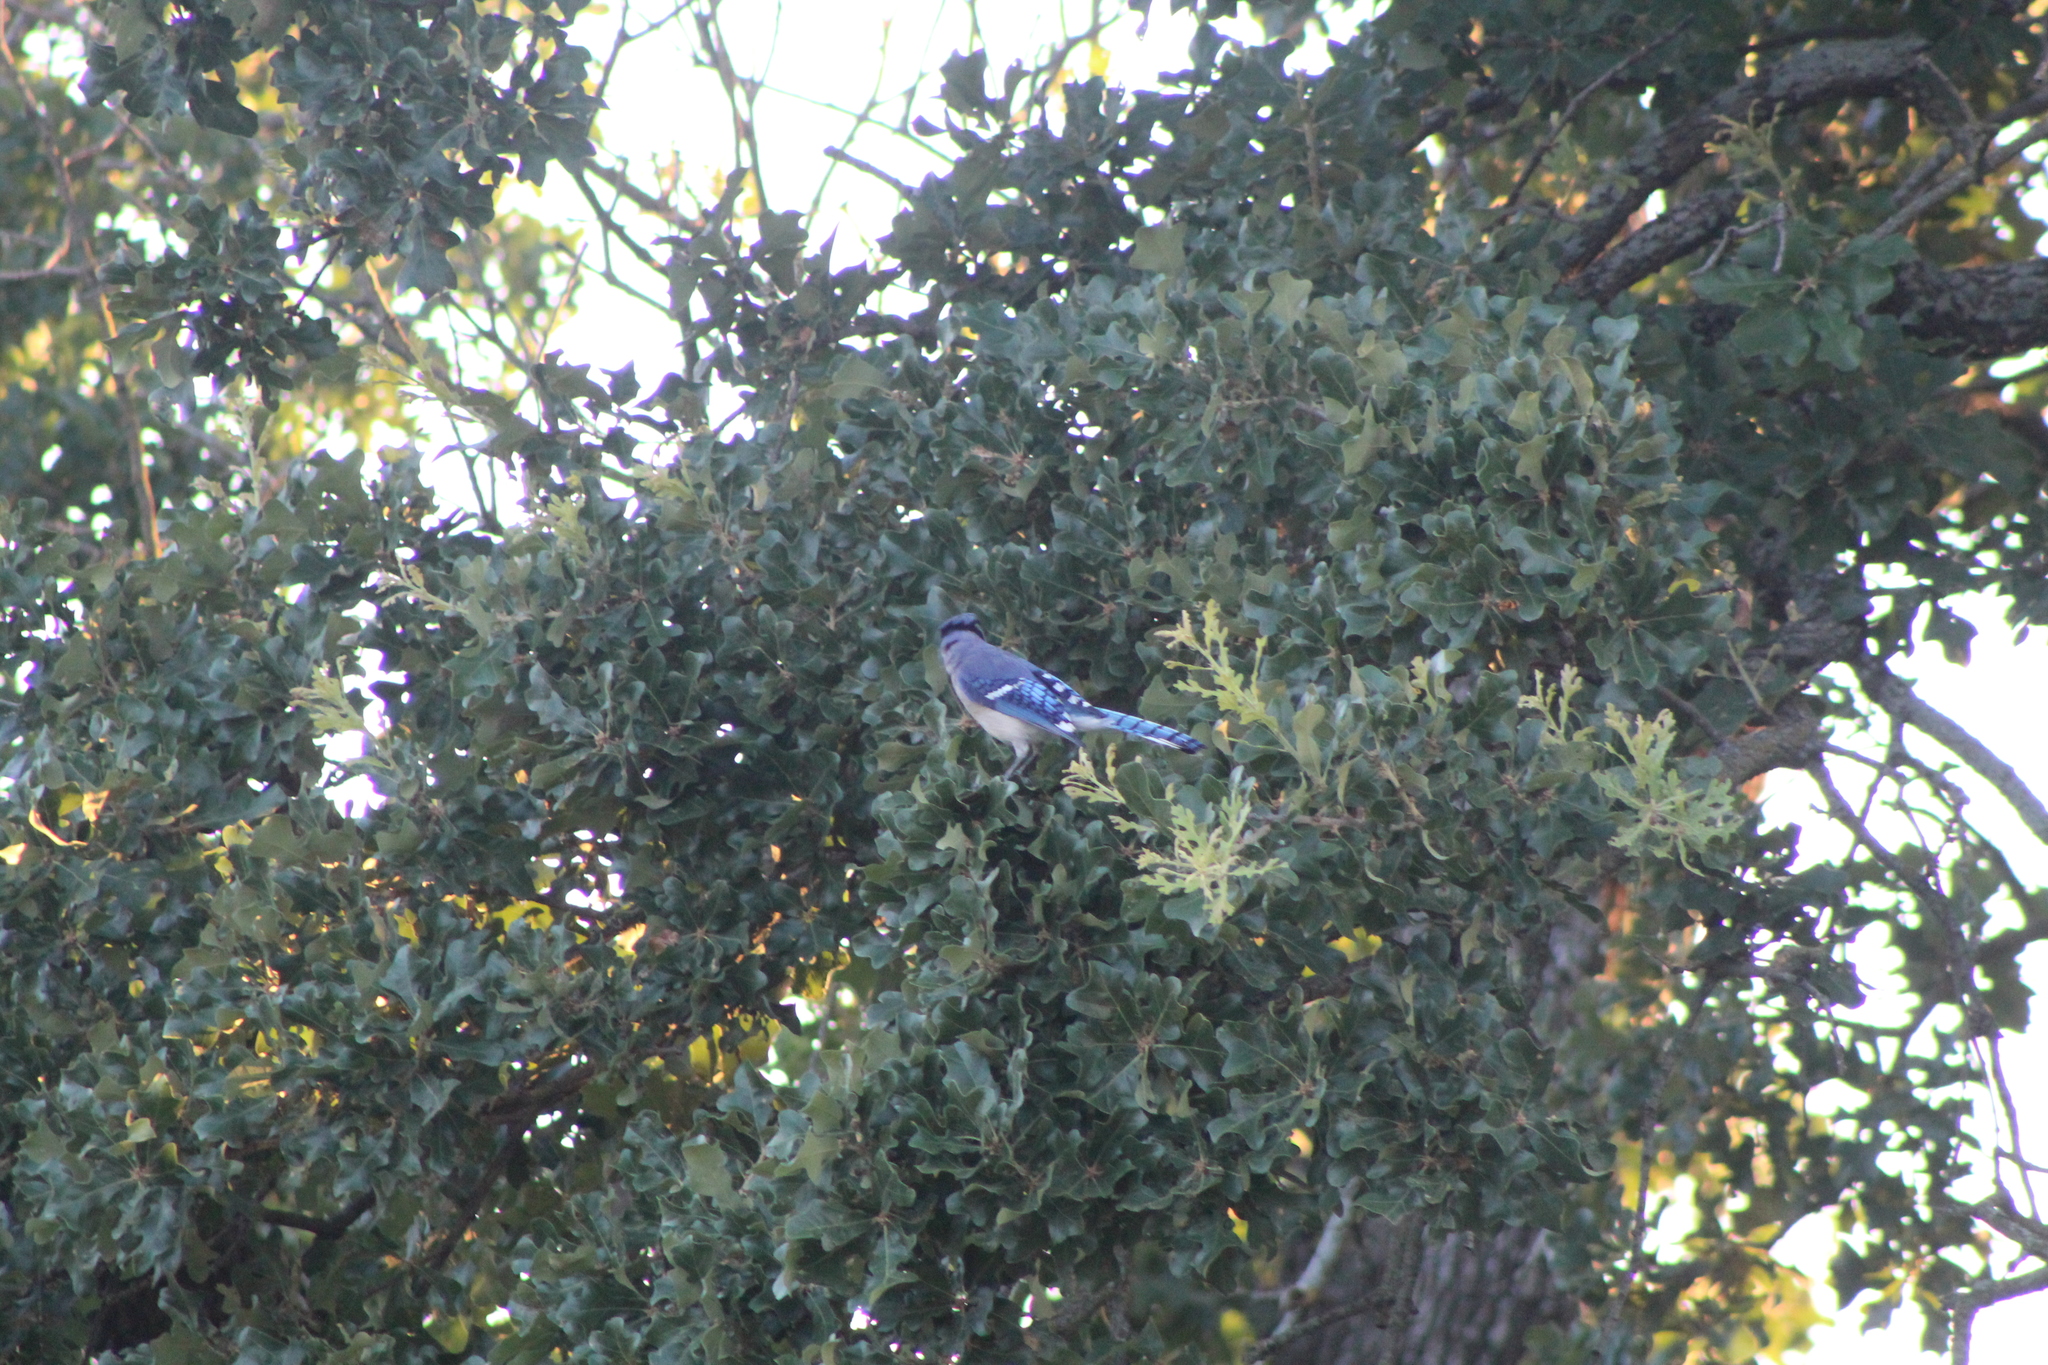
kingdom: Animalia
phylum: Chordata
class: Aves
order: Passeriformes
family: Corvidae
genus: Cyanocitta
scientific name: Cyanocitta cristata
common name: Blue jay
